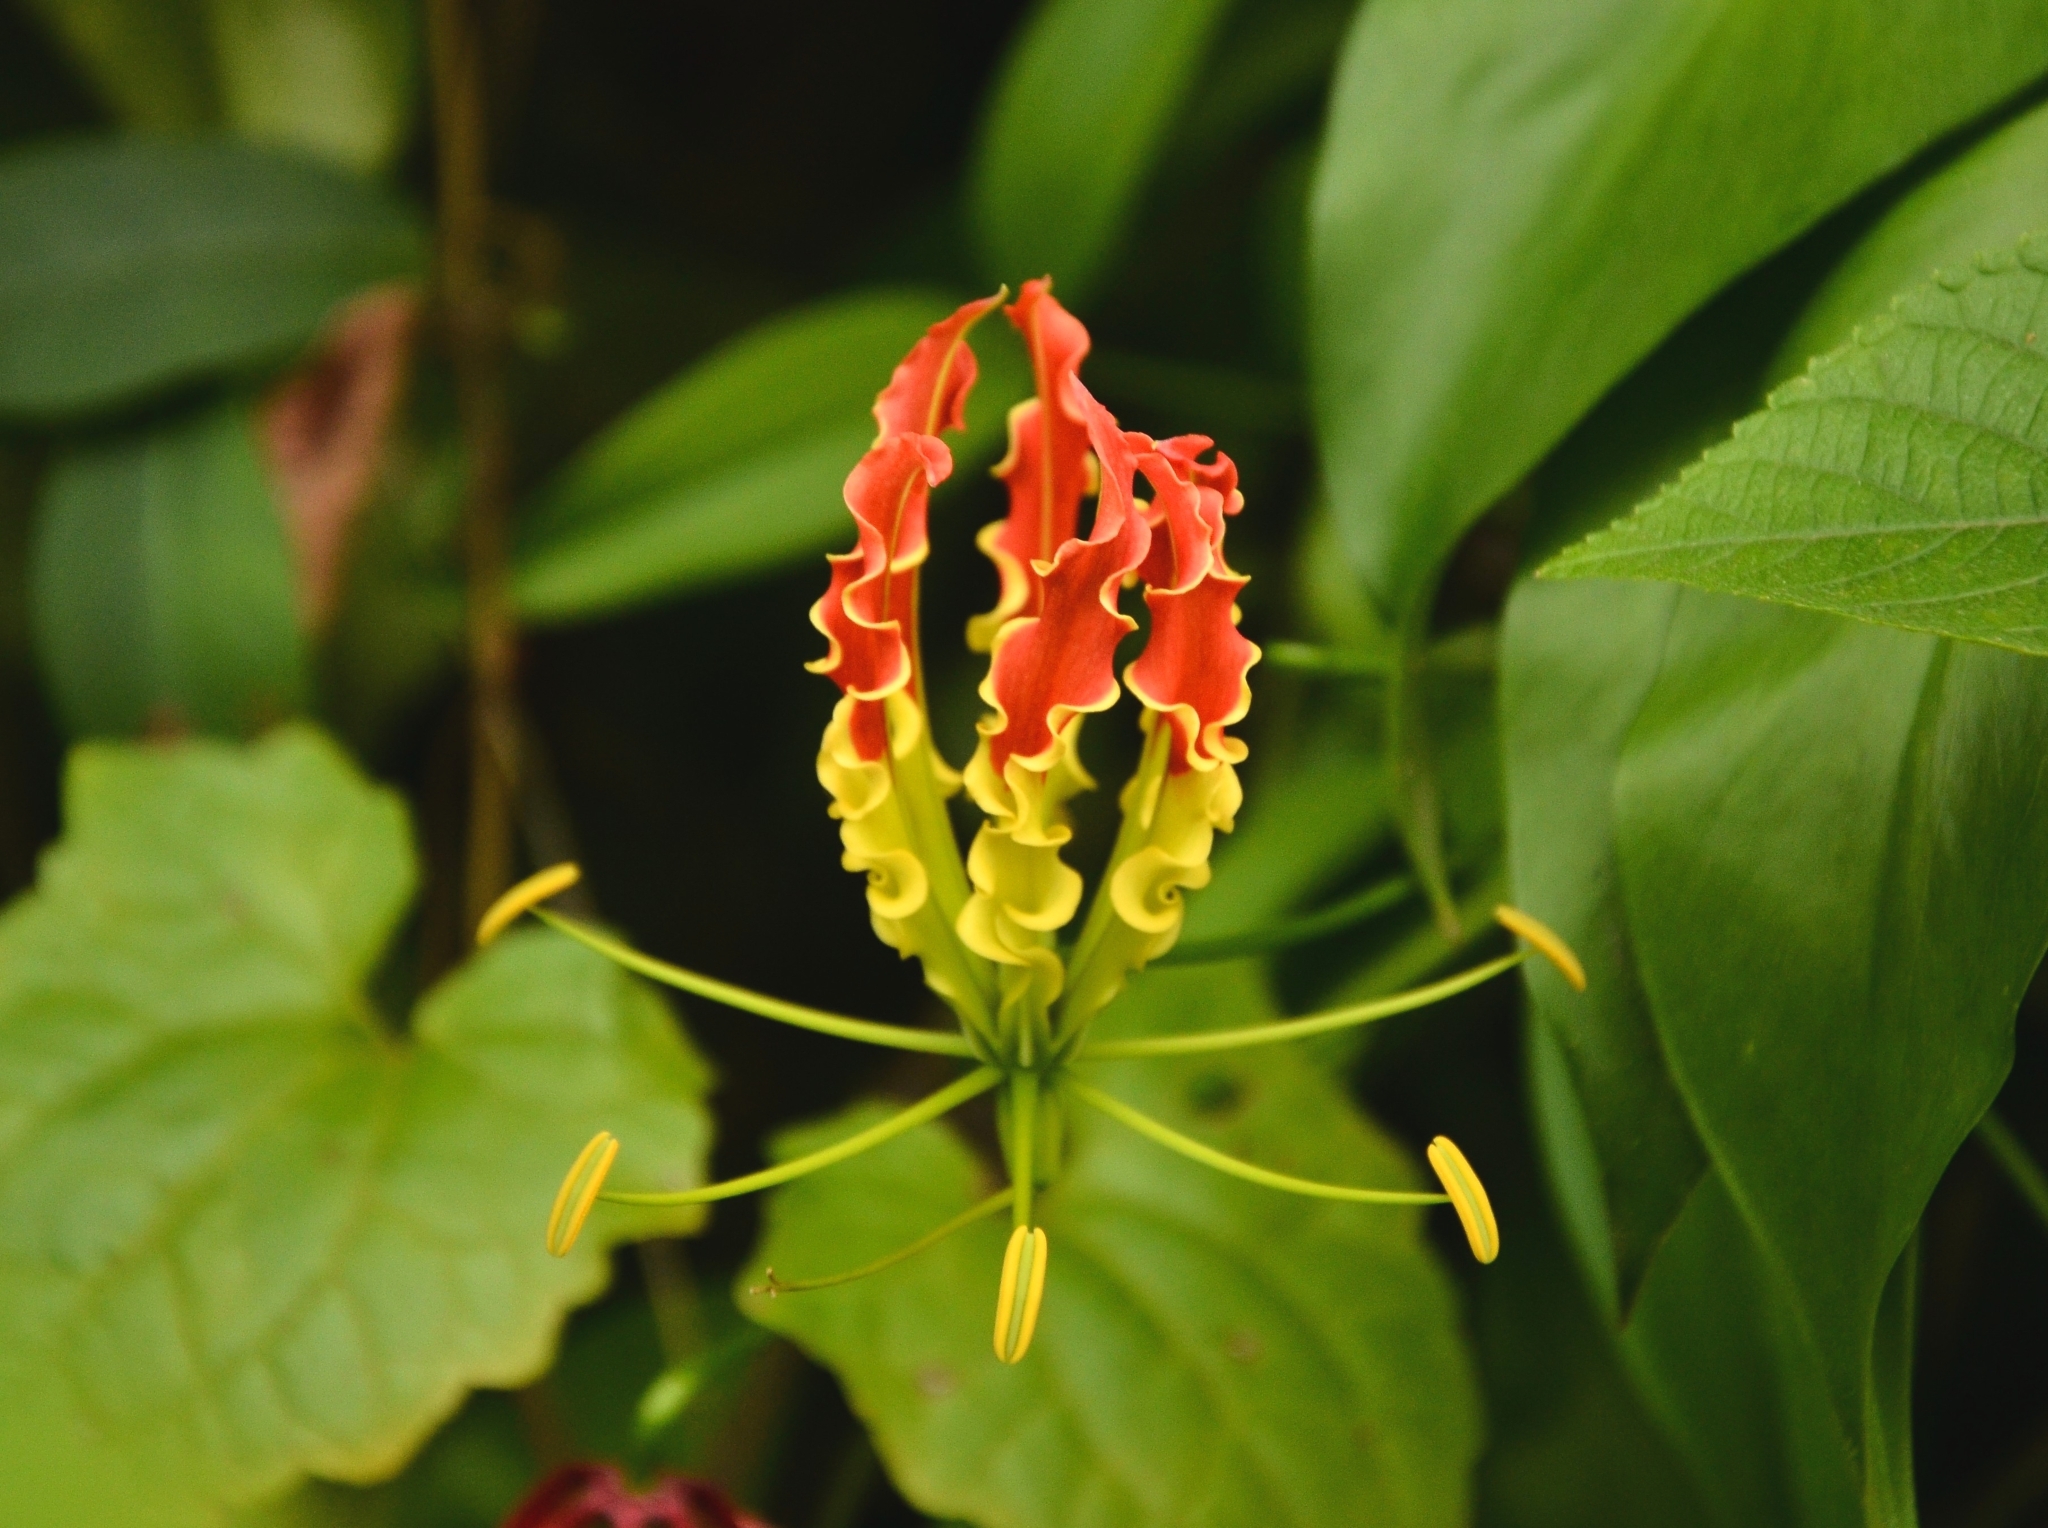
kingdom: Plantae
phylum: Tracheophyta
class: Liliopsida
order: Liliales
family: Colchicaceae
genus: Gloriosa
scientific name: Gloriosa superba
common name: Flame lily
